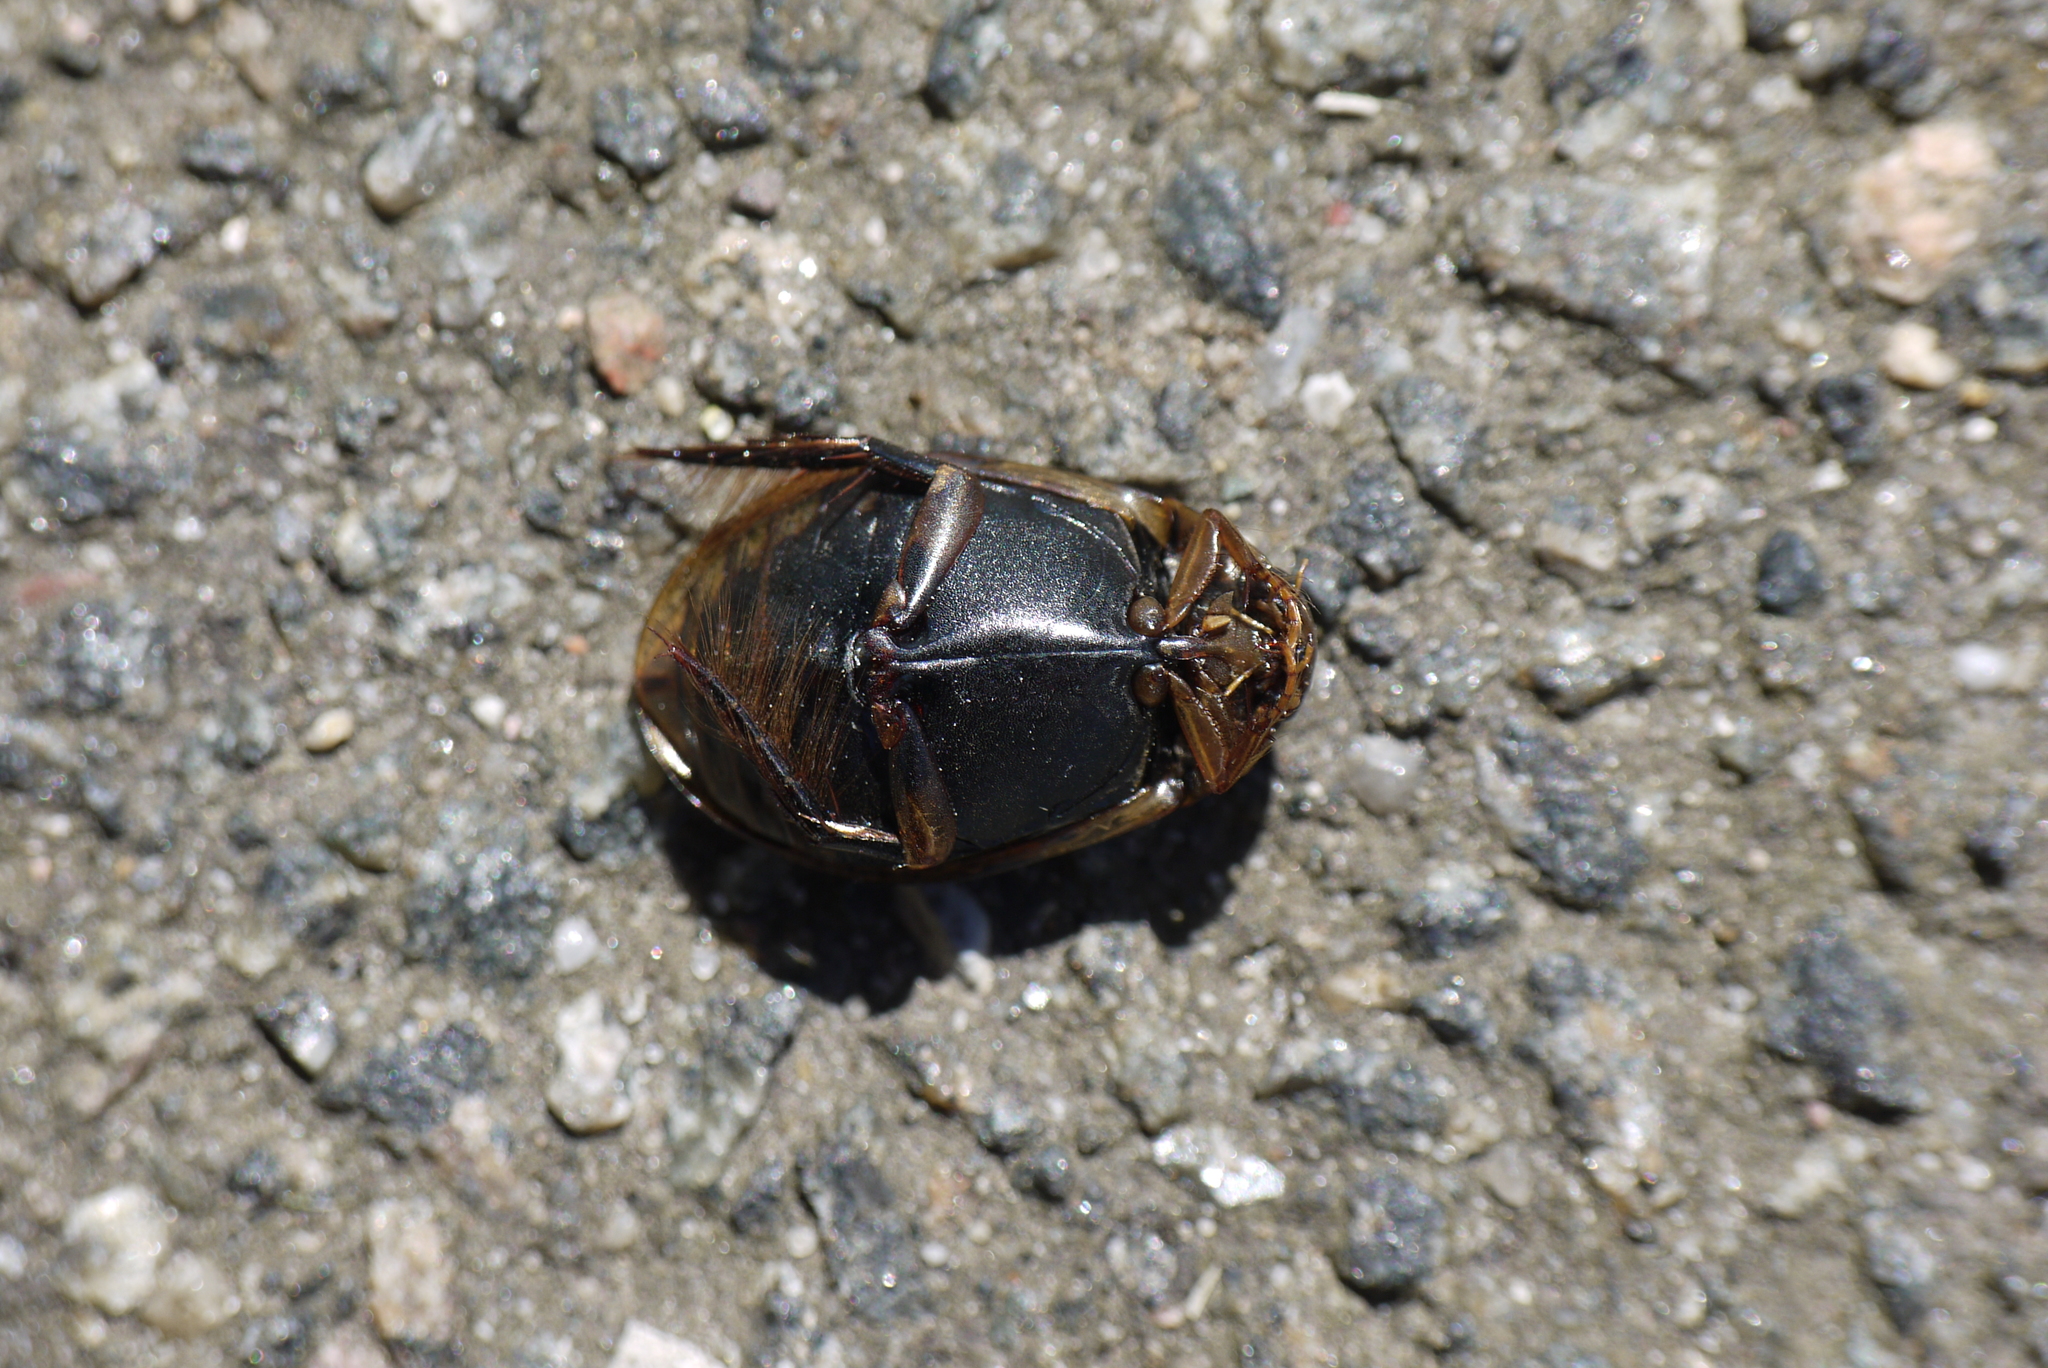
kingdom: Animalia
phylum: Arthropoda
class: Insecta
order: Coleoptera
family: Dytiscidae
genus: Acilius
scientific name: Acilius sulcatus
